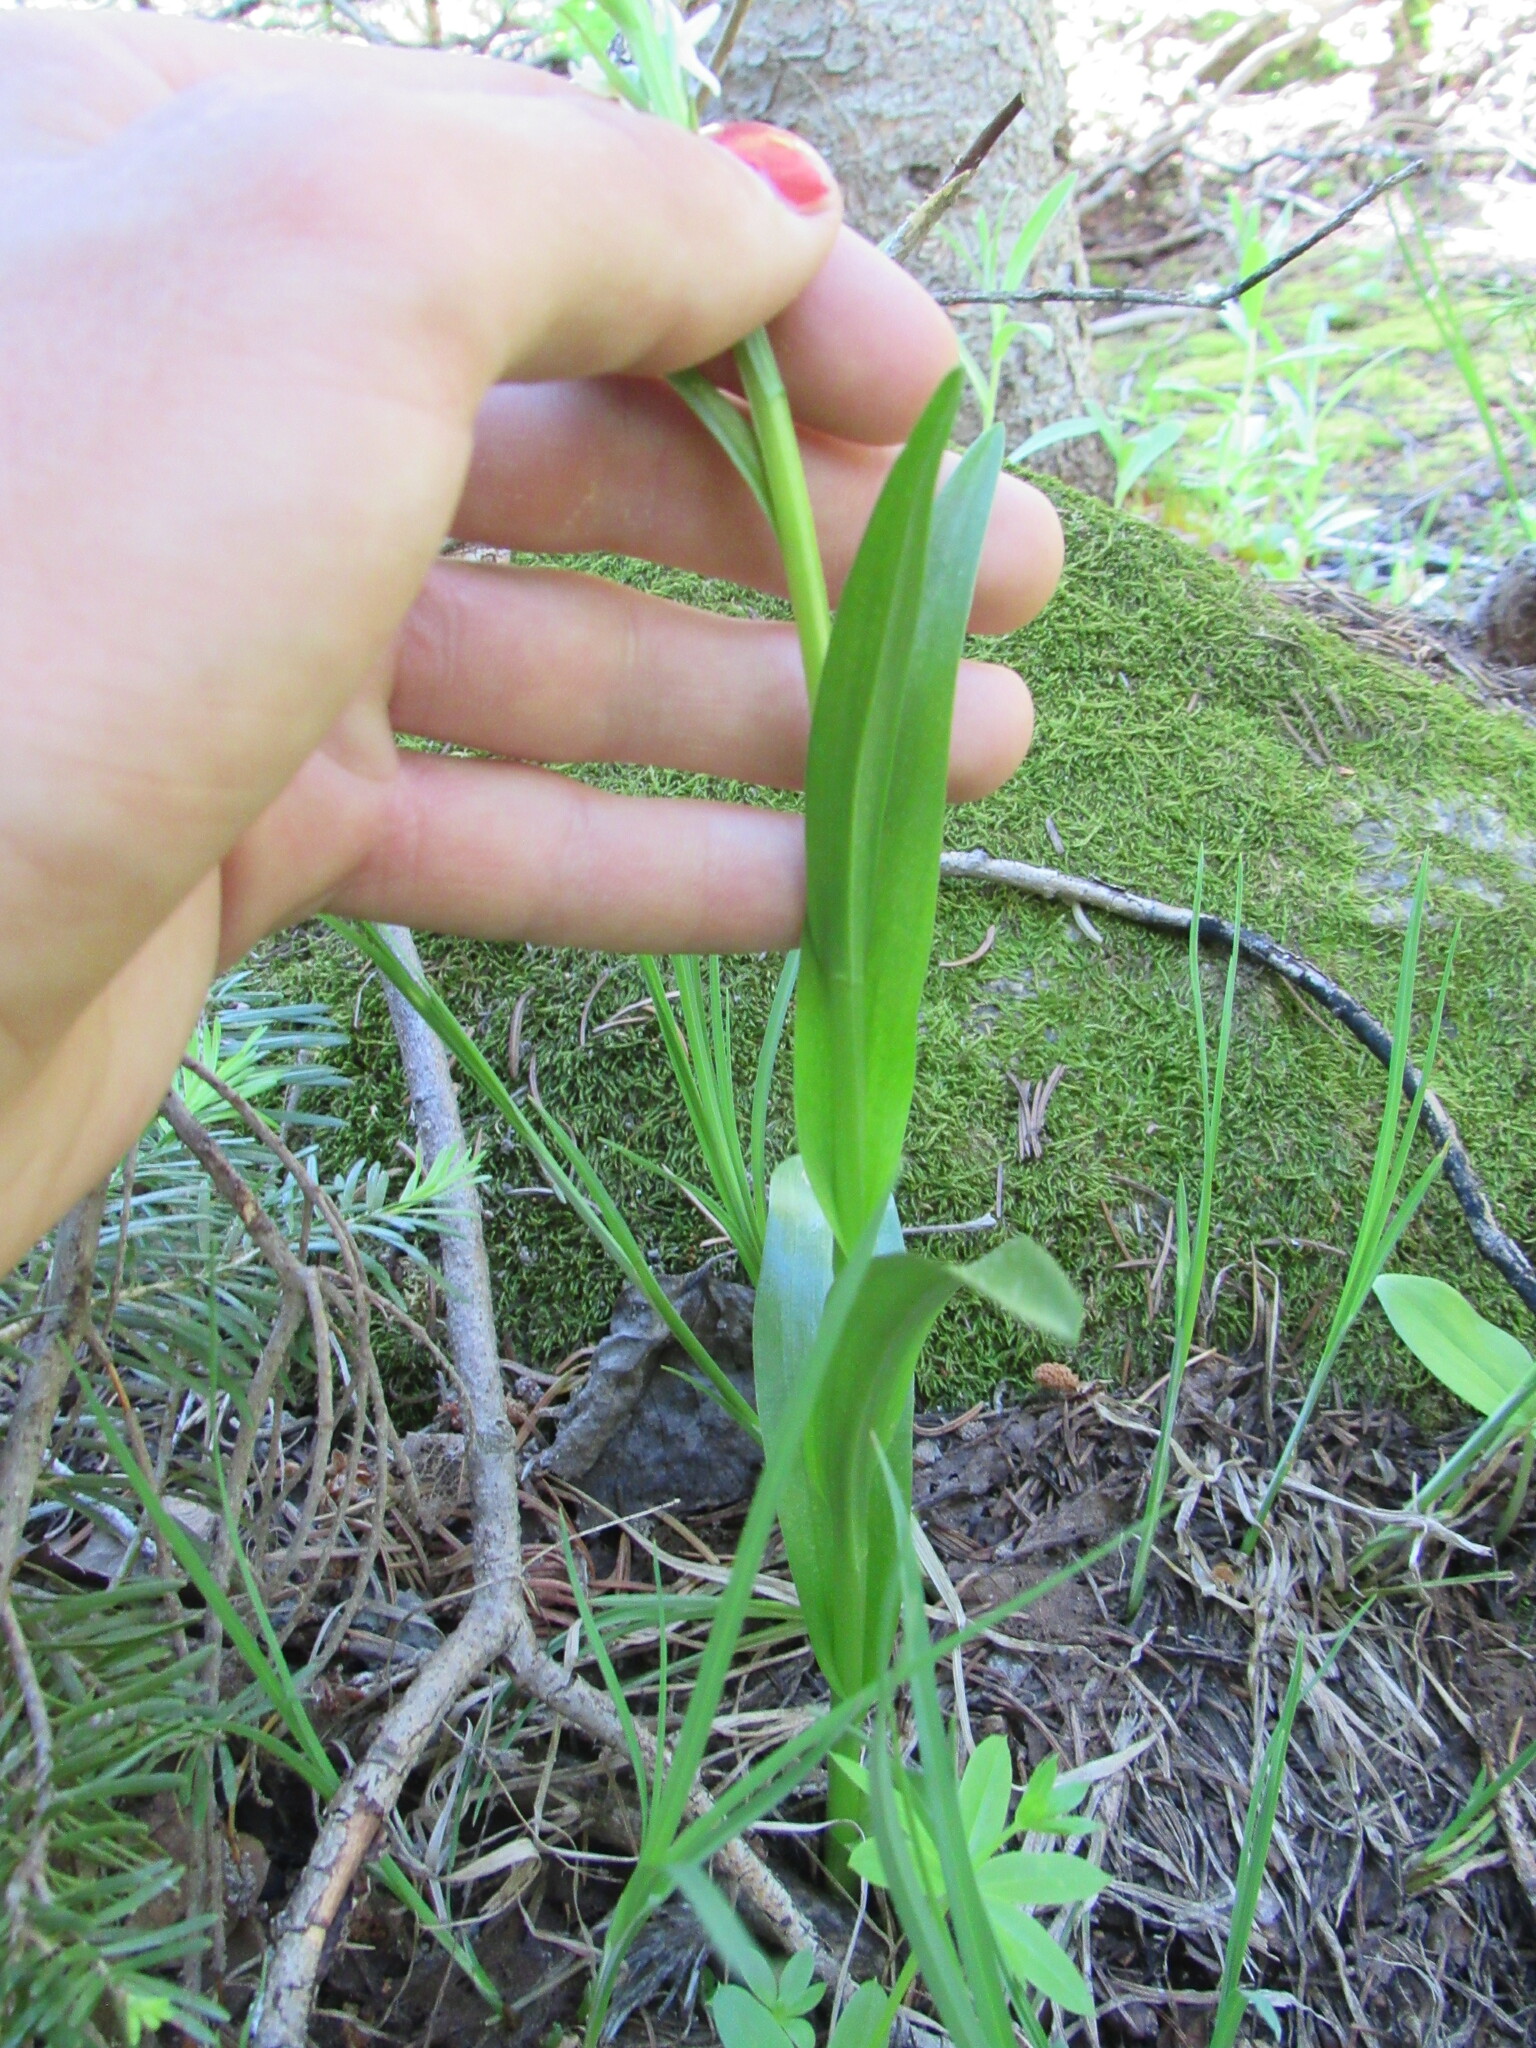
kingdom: Plantae
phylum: Tracheophyta
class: Liliopsida
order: Asparagales
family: Orchidaceae
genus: Platanthera
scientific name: Platanthera dilatata
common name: Bog candles
